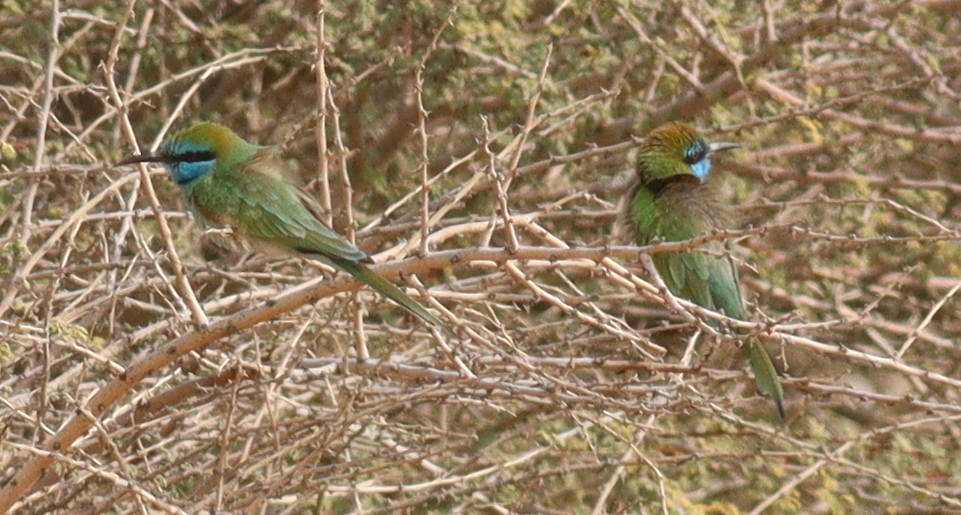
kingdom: Animalia
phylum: Chordata
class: Aves
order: Coraciiformes
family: Meropidae
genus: Merops
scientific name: Merops cyanophrys
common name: Arabian green bee-eater
